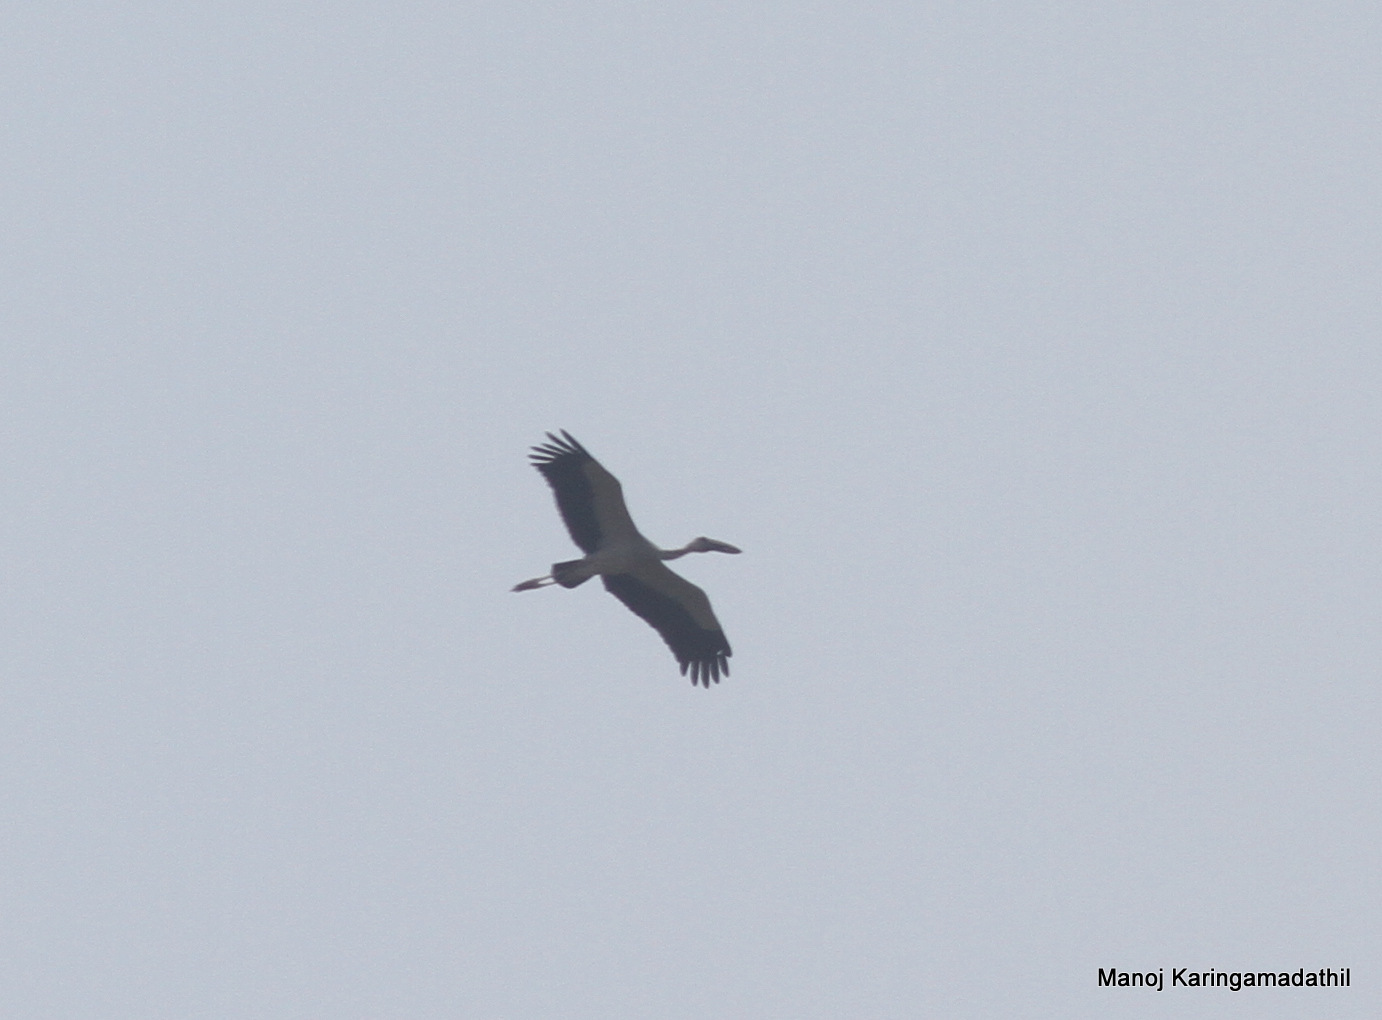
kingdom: Animalia
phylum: Chordata
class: Aves
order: Ciconiiformes
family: Ciconiidae
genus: Anastomus
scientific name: Anastomus oscitans
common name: Asian openbill
